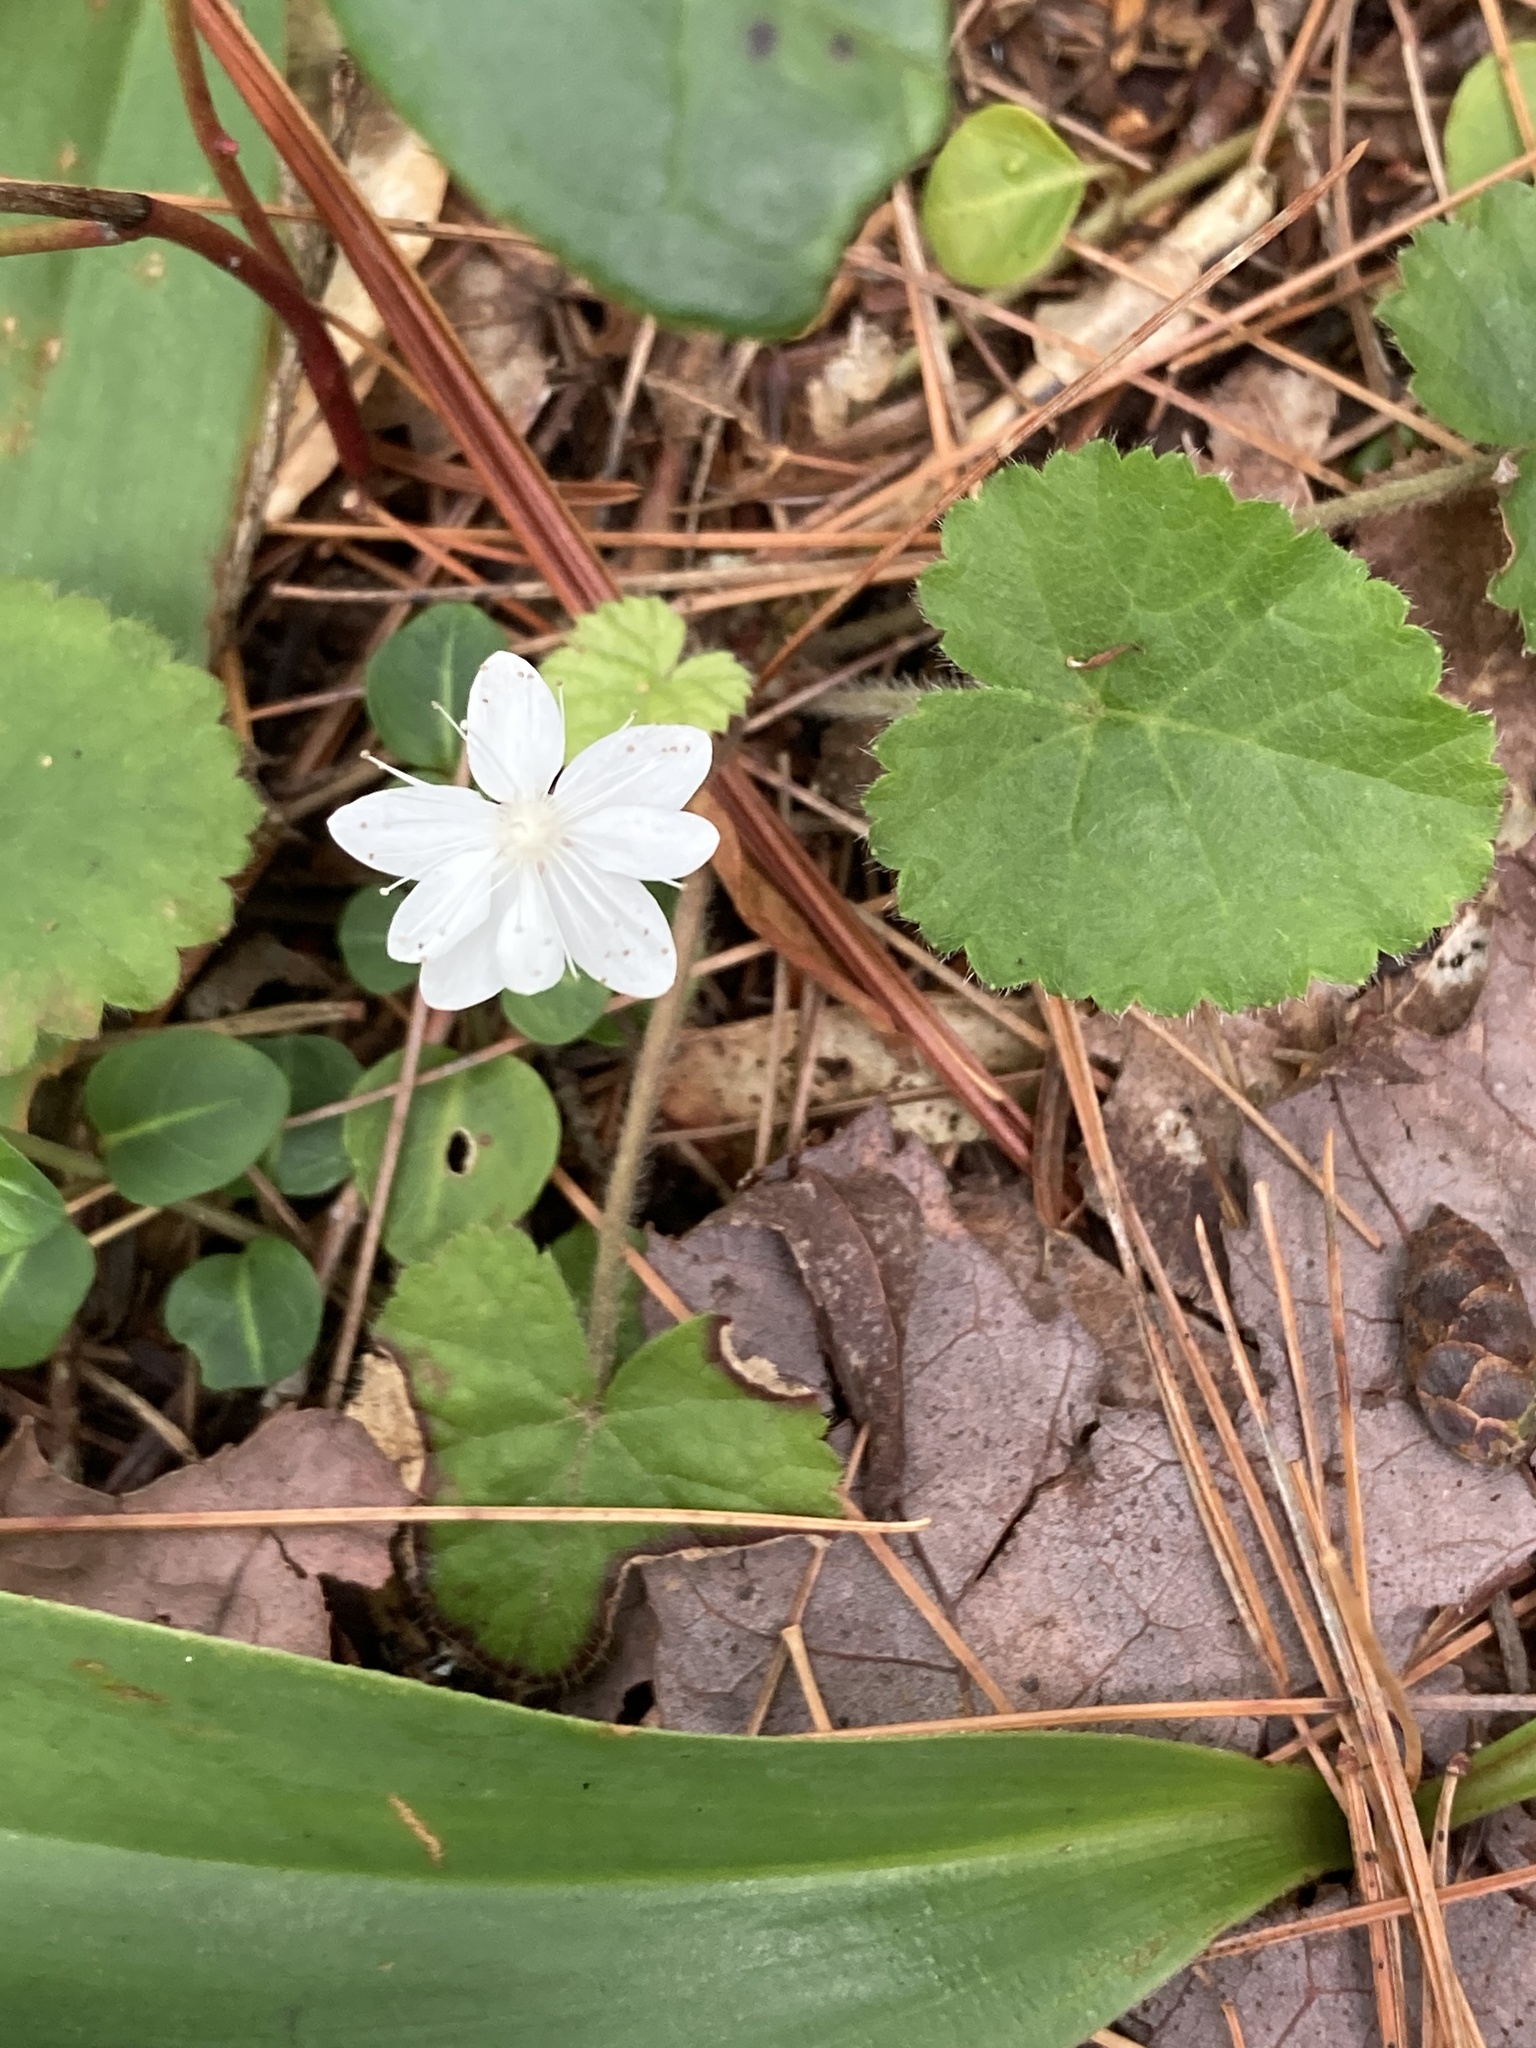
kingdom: Plantae
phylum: Tracheophyta
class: Magnoliopsida
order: Rosales
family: Rosaceae
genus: Dalibarda
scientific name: Dalibarda repens
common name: Dewdrop
